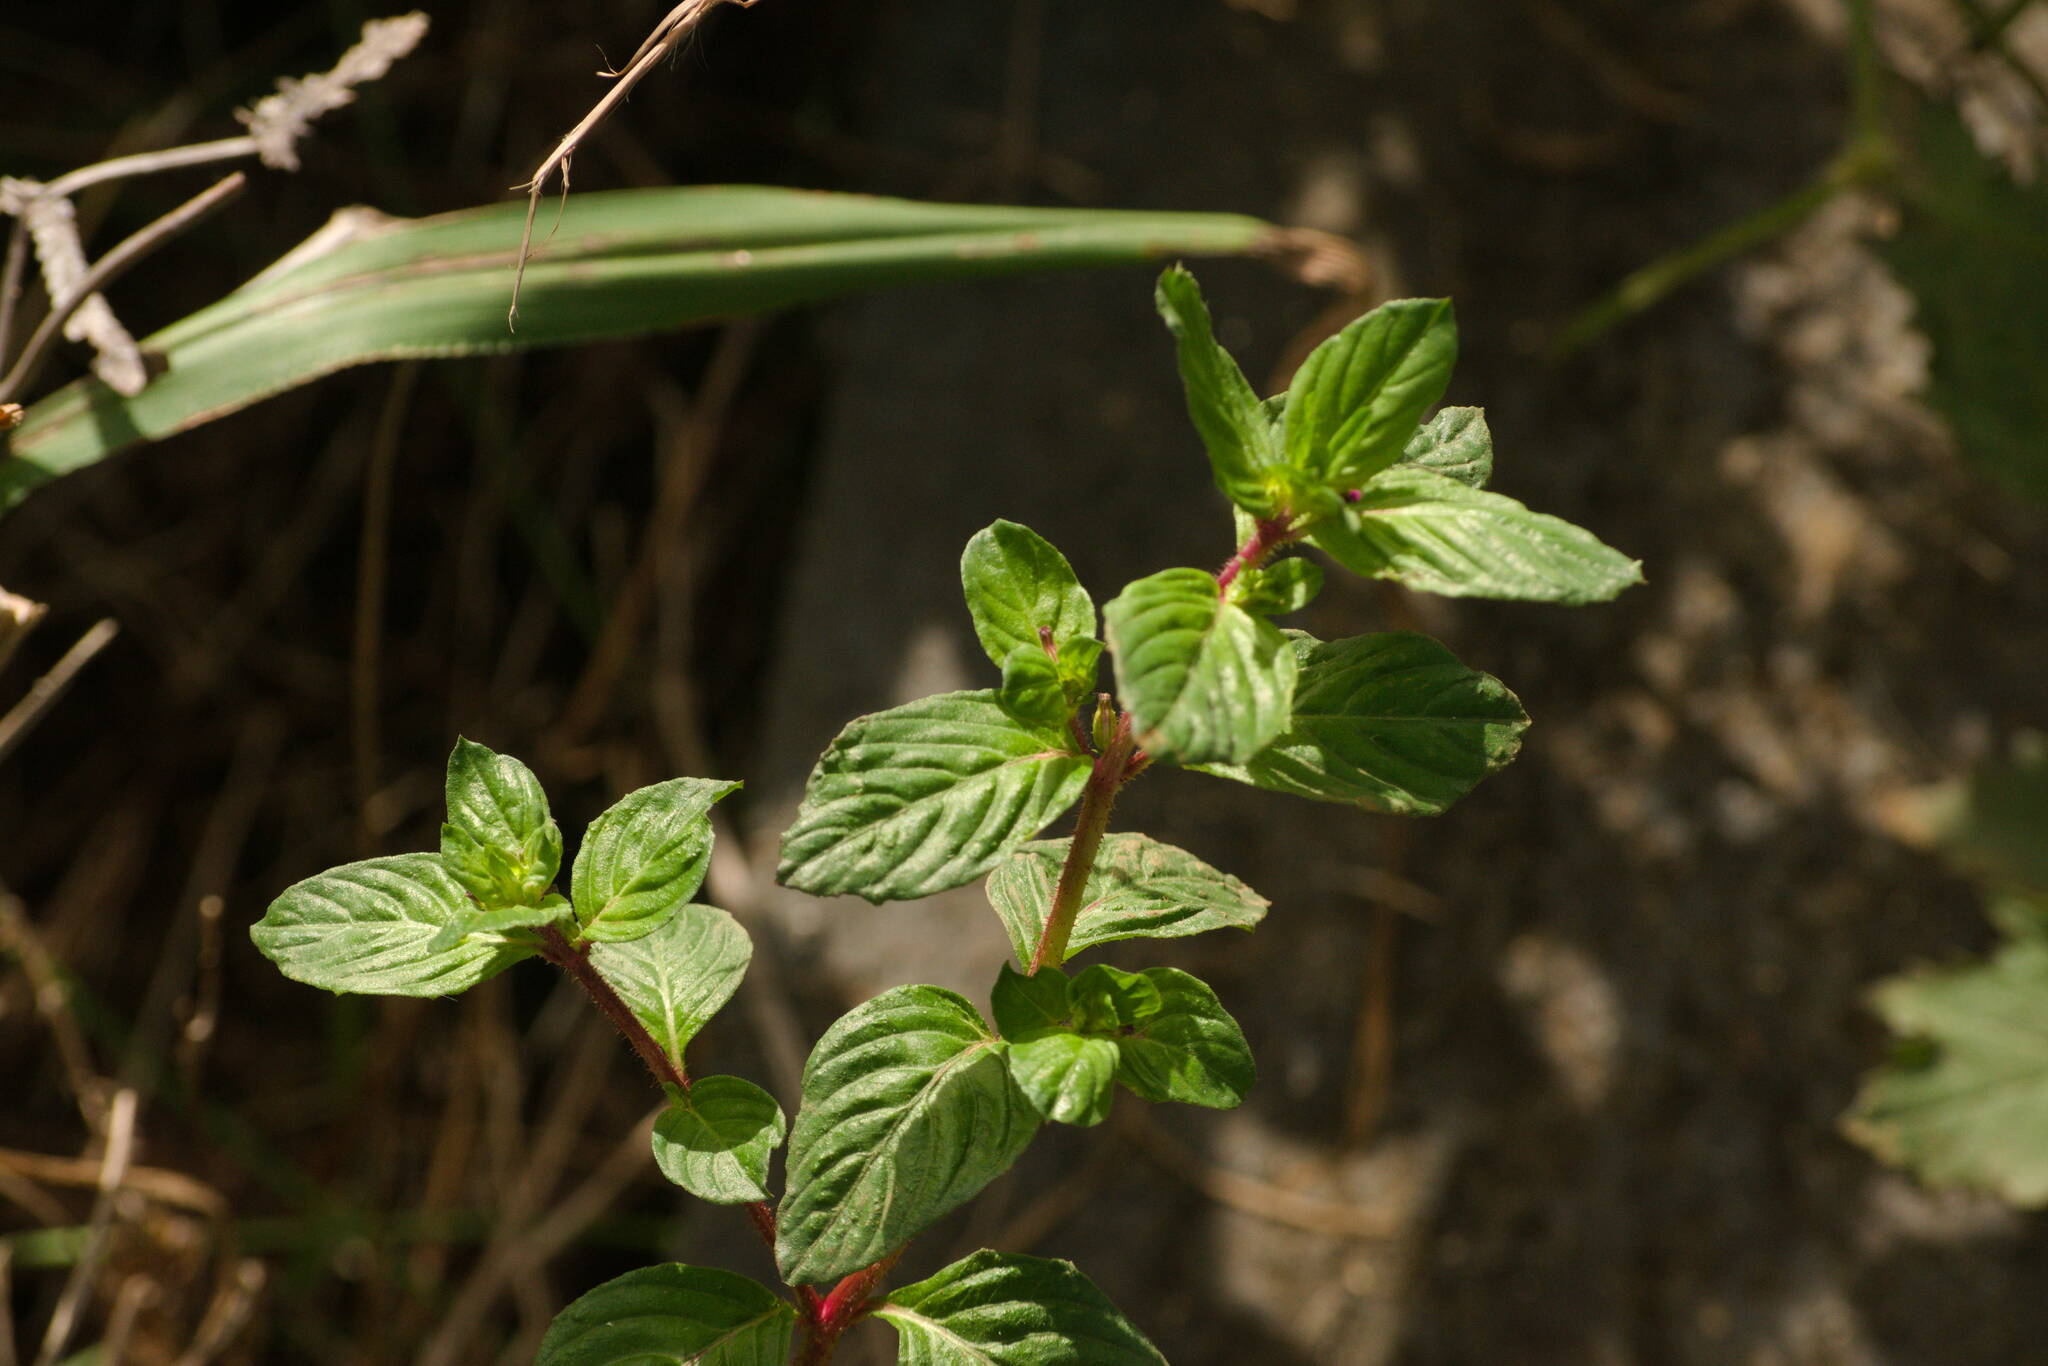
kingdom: Plantae
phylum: Tracheophyta
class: Magnoliopsida
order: Myrtales
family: Lythraceae
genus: Cuphea
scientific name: Cuphea carthagenensis
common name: Colombian waxweed
